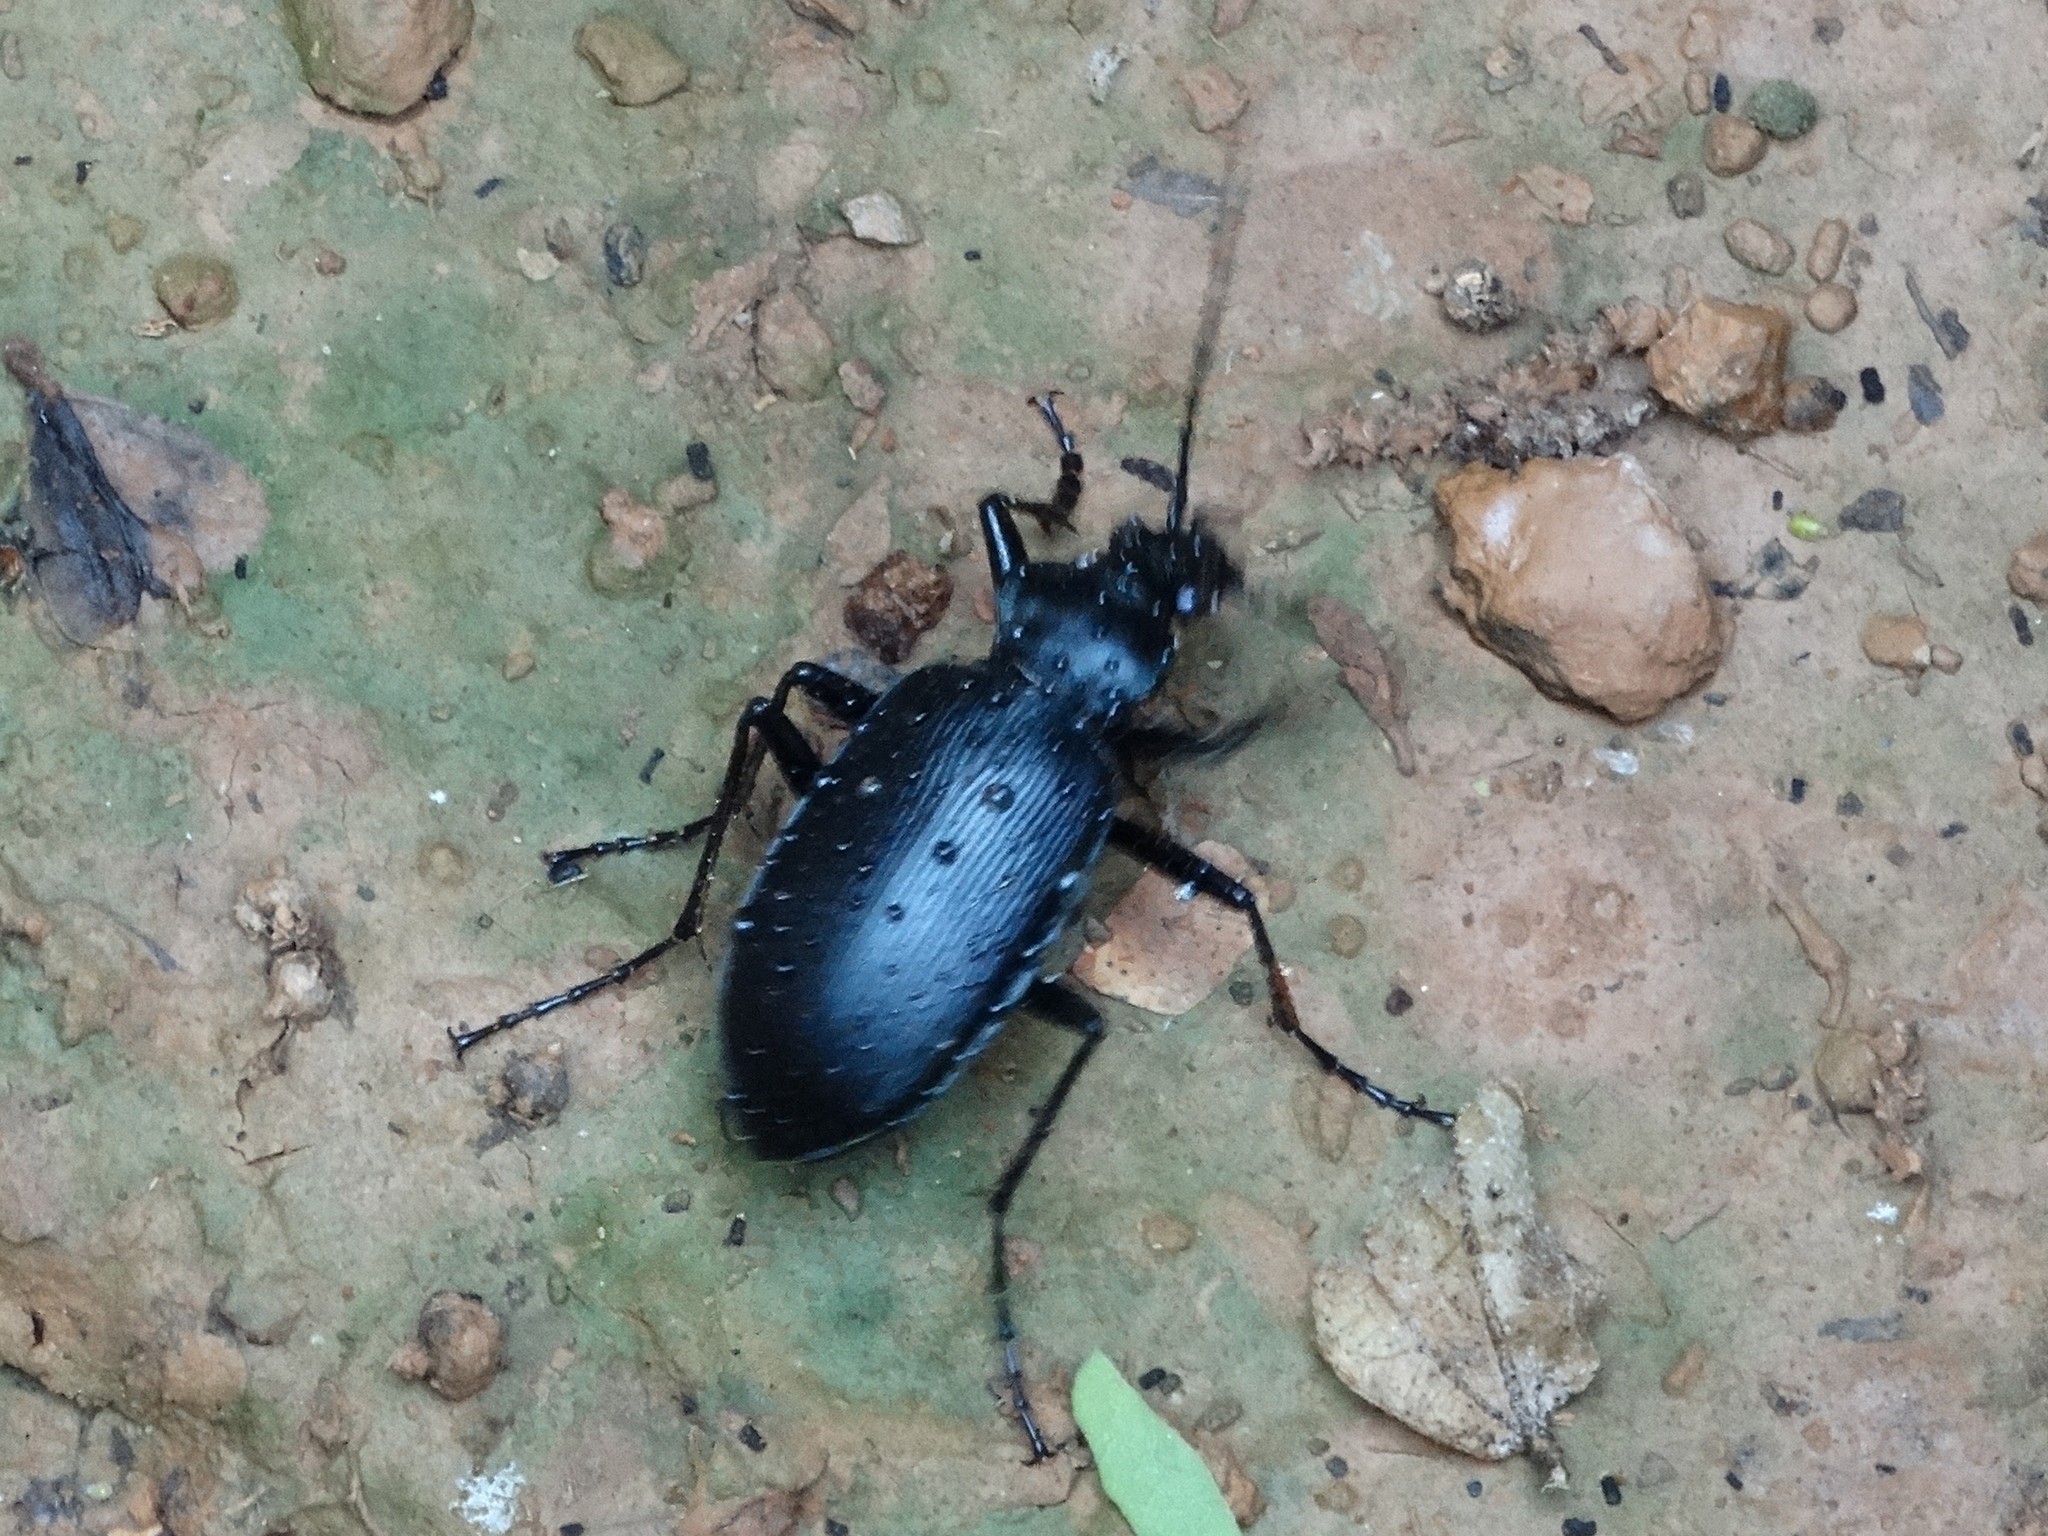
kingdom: Animalia
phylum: Arthropoda
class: Insecta
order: Coleoptera
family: Carabidae
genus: Calosoma
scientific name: Calosoma
